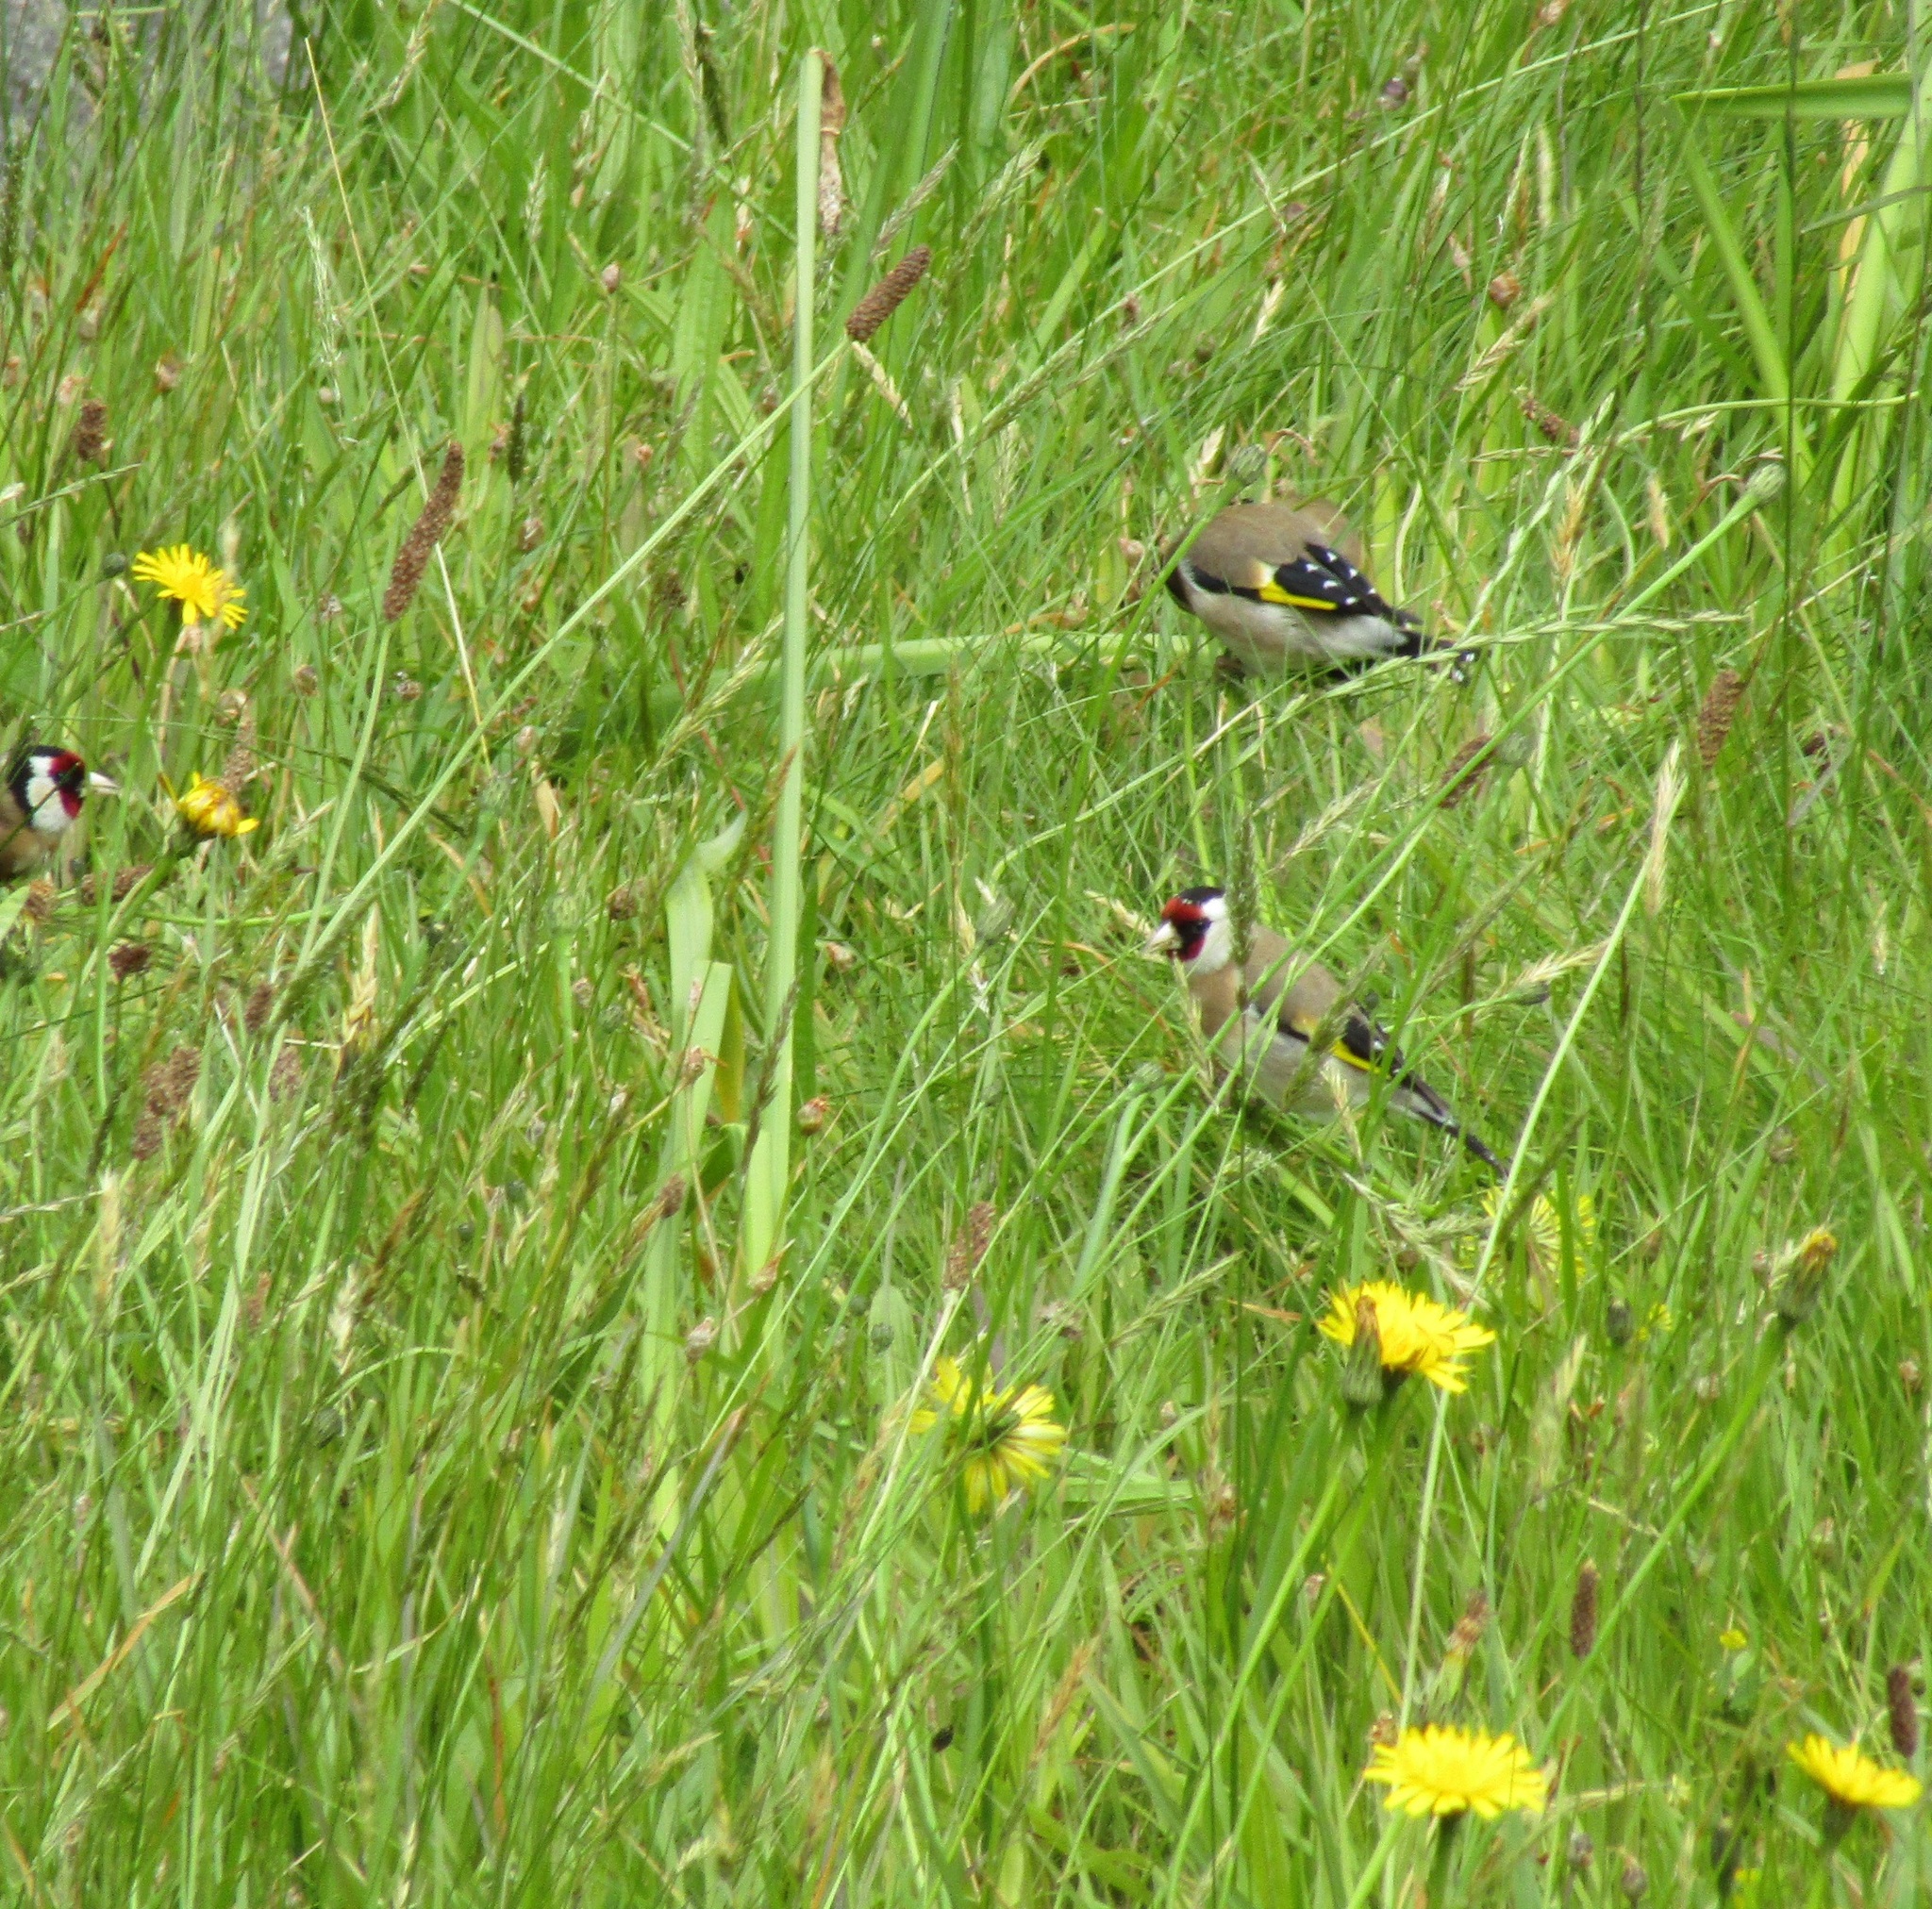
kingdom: Animalia
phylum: Chordata
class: Aves
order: Passeriformes
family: Fringillidae
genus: Carduelis
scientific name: Carduelis carduelis
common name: European goldfinch
